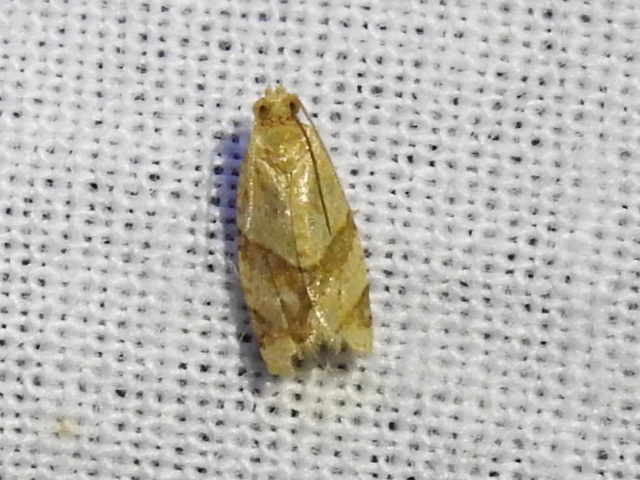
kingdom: Animalia
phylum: Arthropoda
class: Insecta
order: Lepidoptera
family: Tortricidae
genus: Clepsis
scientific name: Clepsis peritana
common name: Garden tortrix
